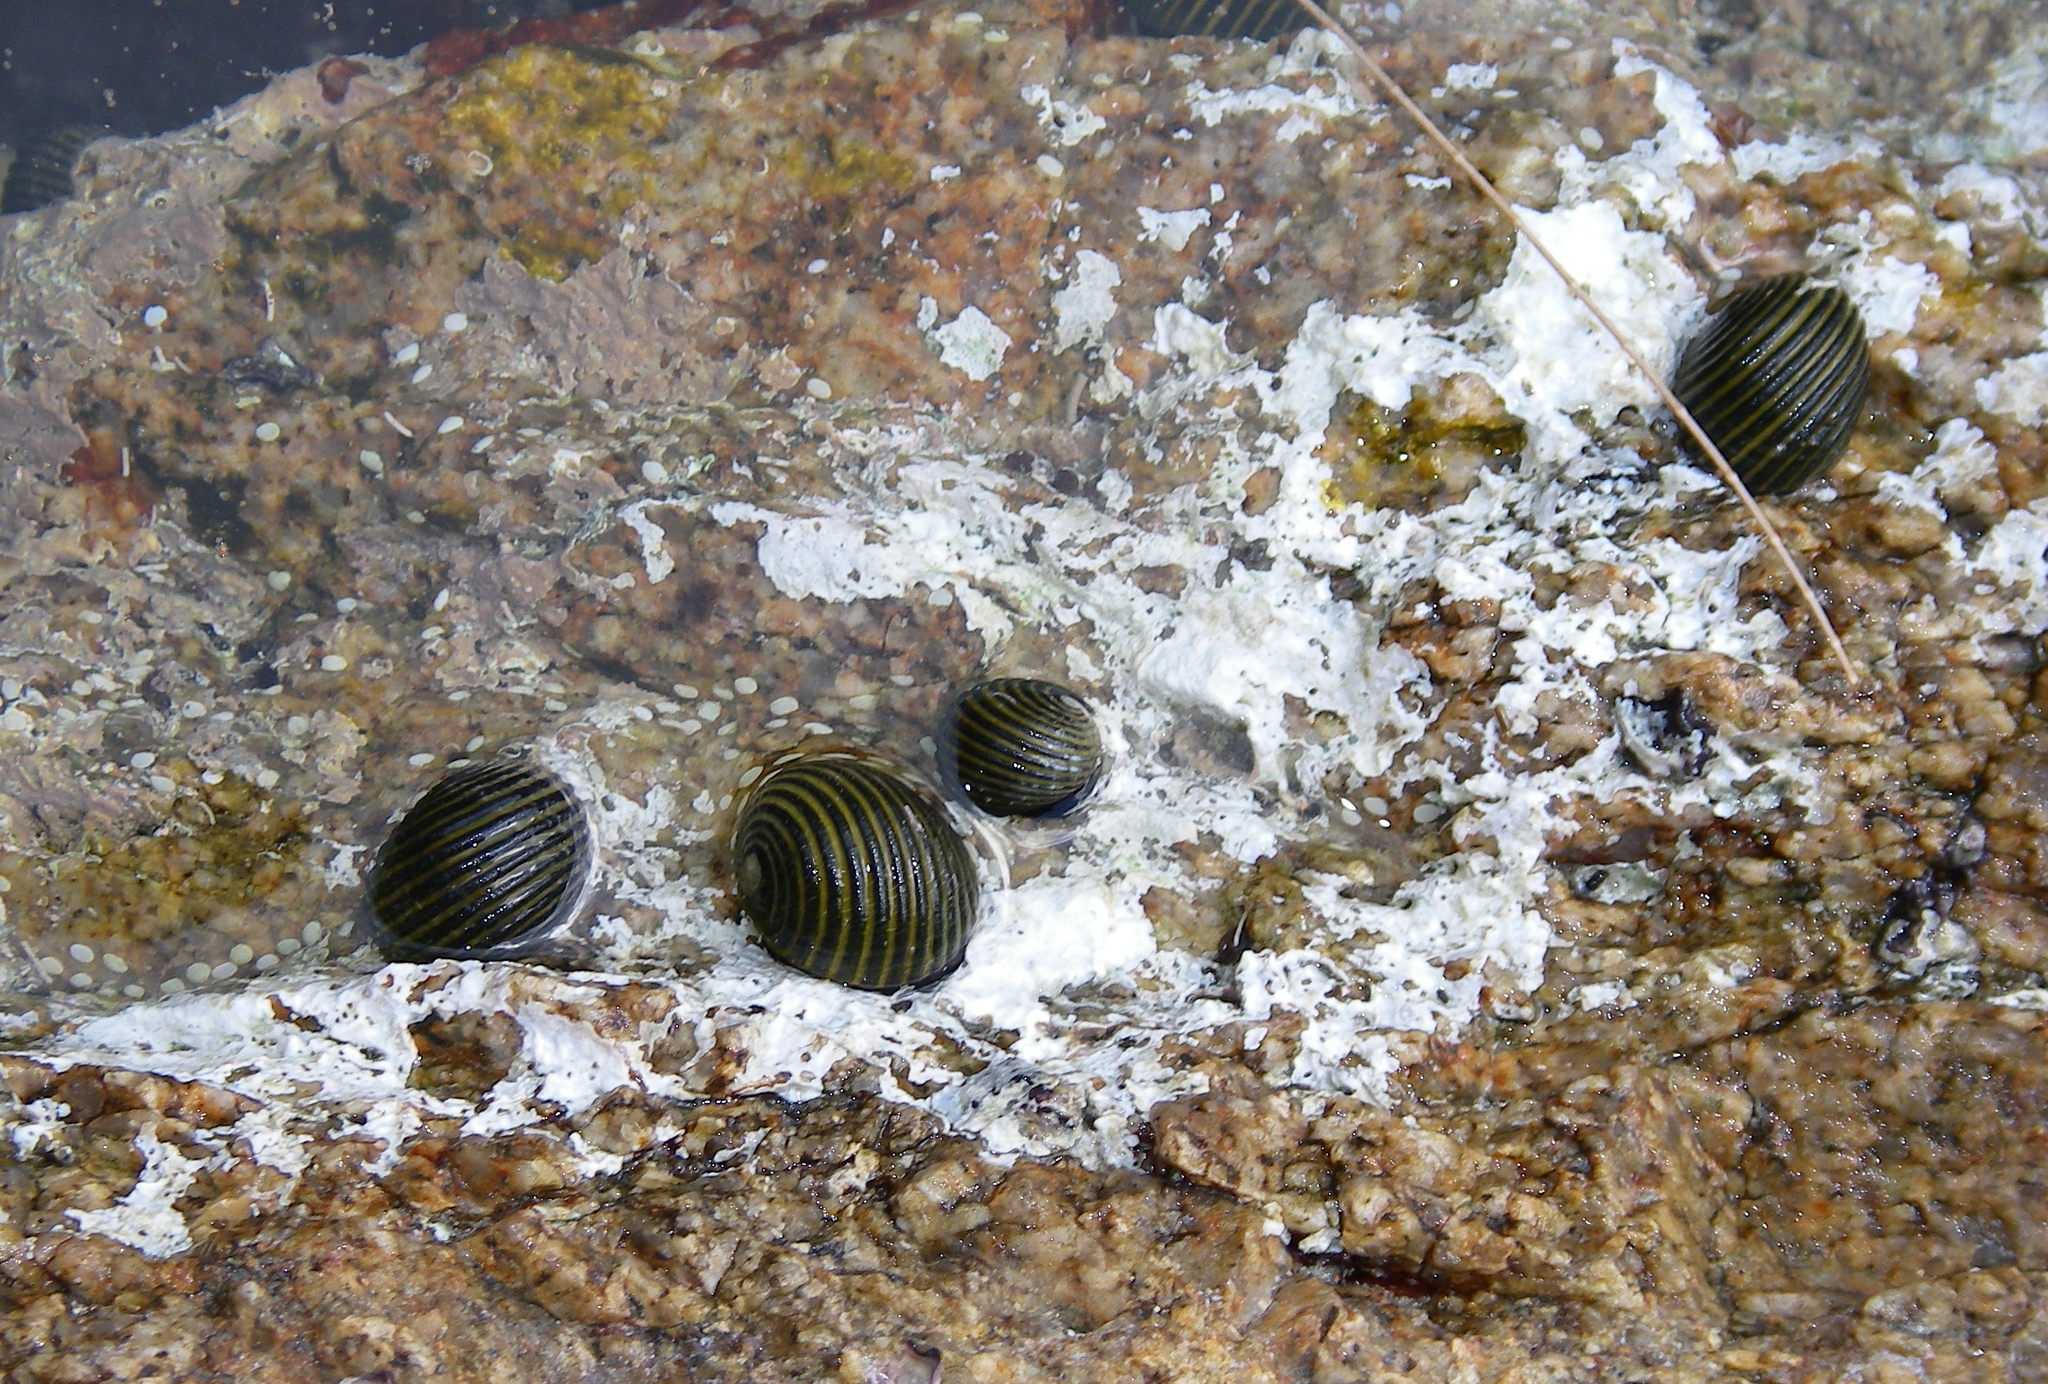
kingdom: Animalia
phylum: Mollusca
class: Gastropoda
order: Cycloneritida
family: Neritidae
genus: Nerita
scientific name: Nerita costata
